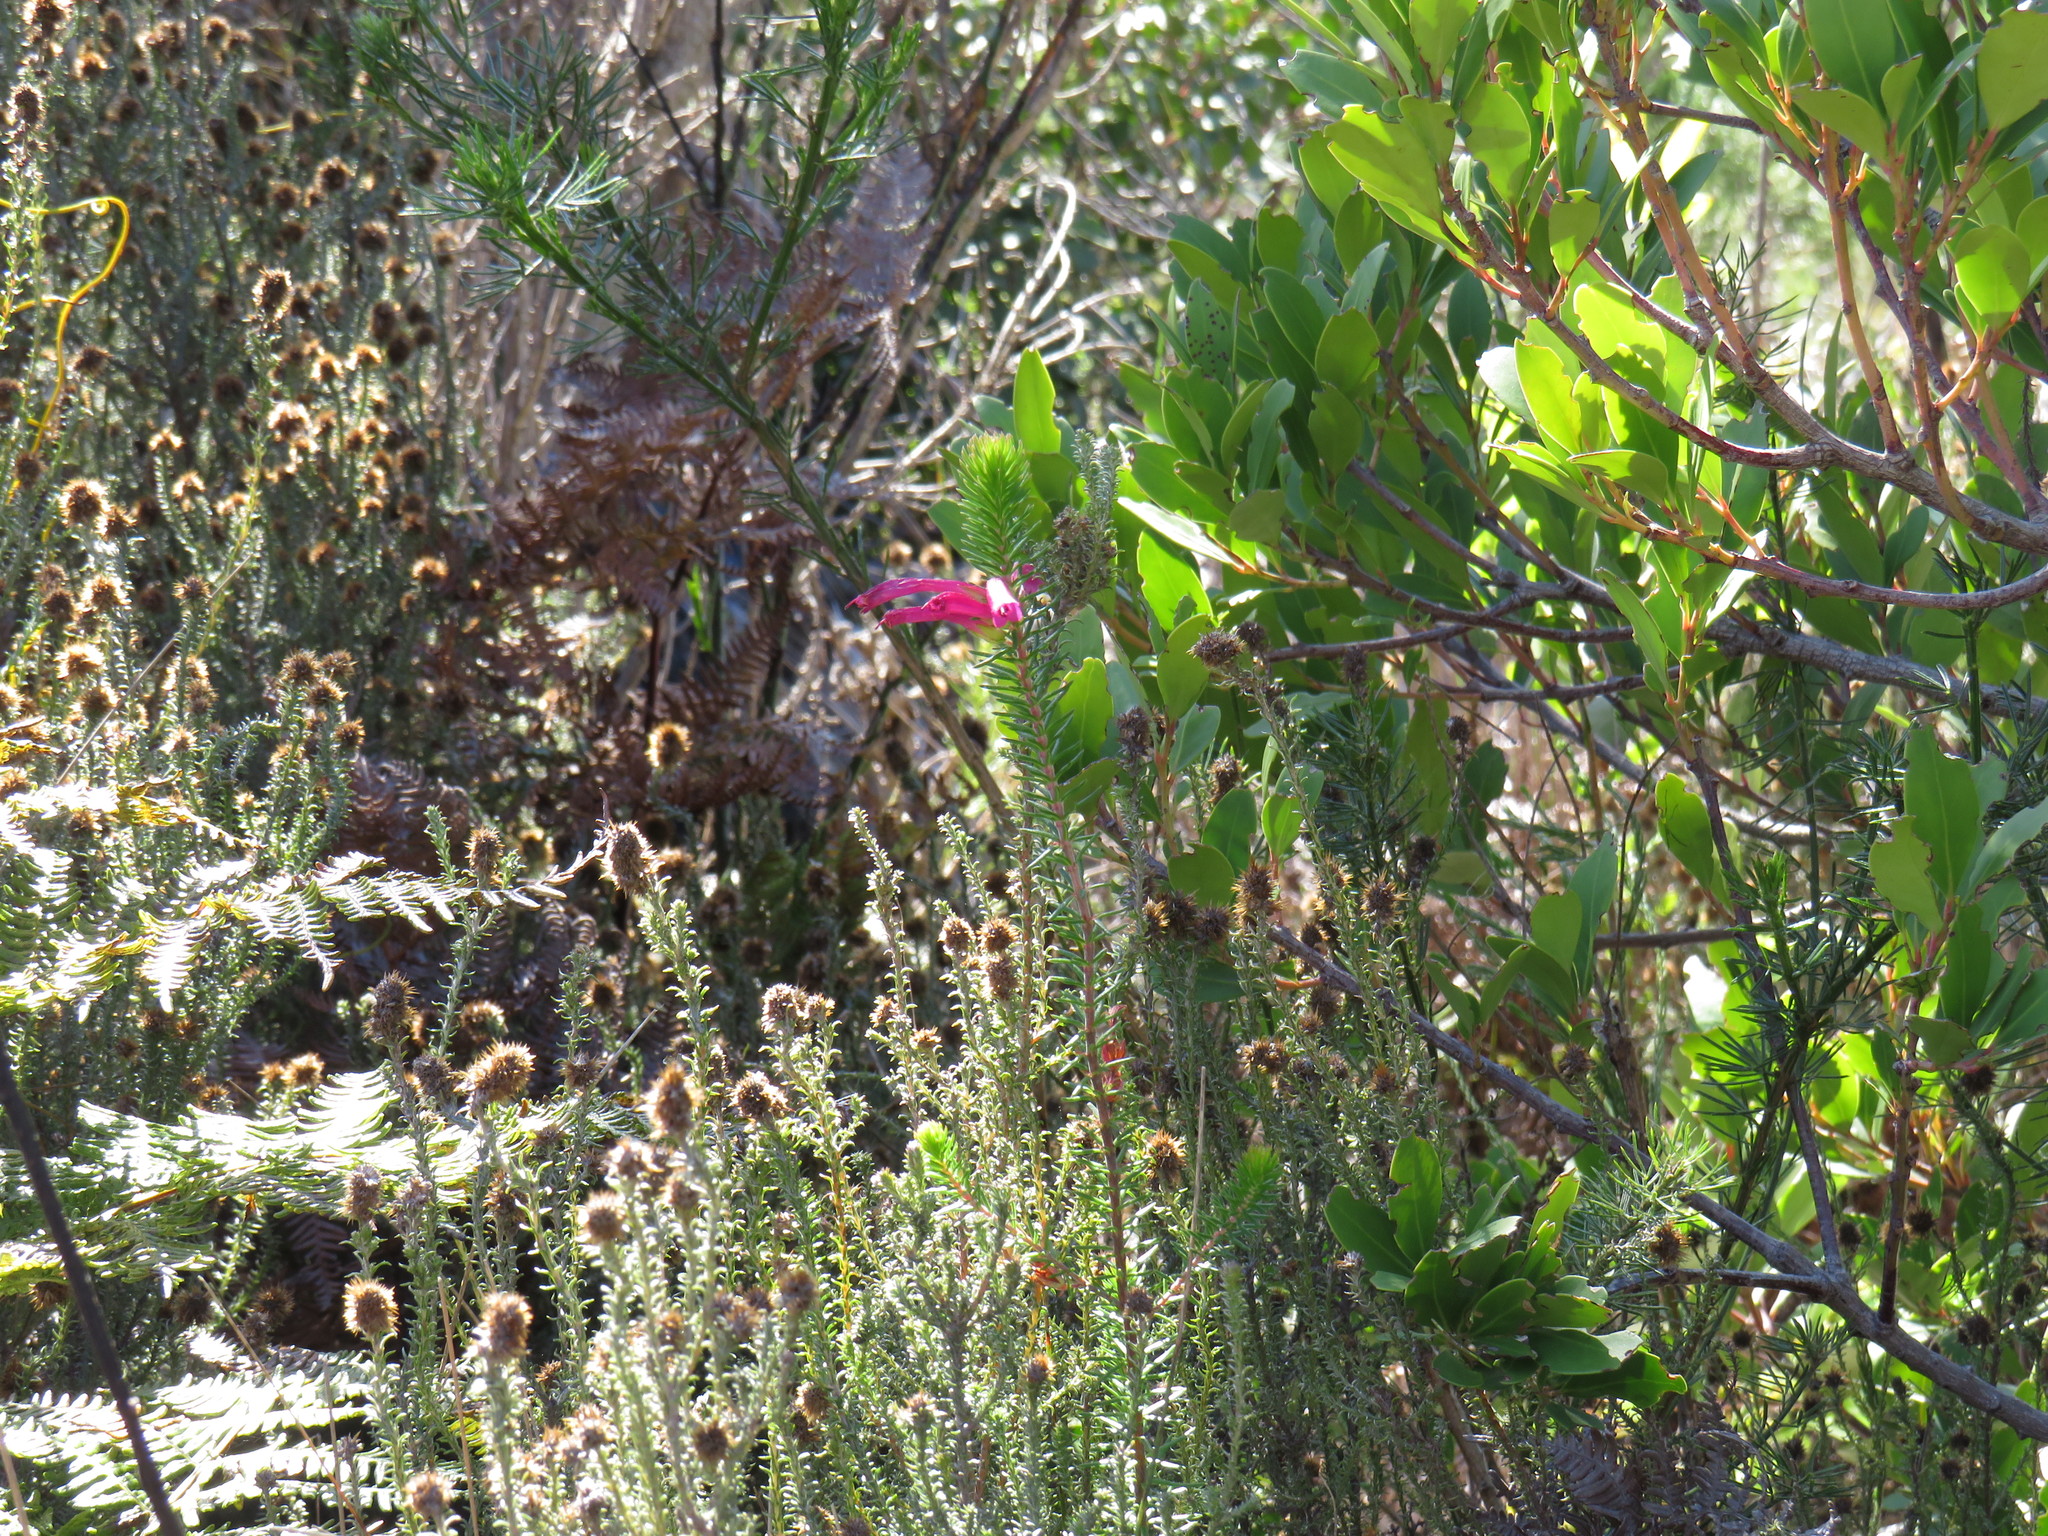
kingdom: Plantae
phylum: Tracheophyta
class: Magnoliopsida
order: Ericales
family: Ericaceae
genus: Erica
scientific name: Erica abietina
